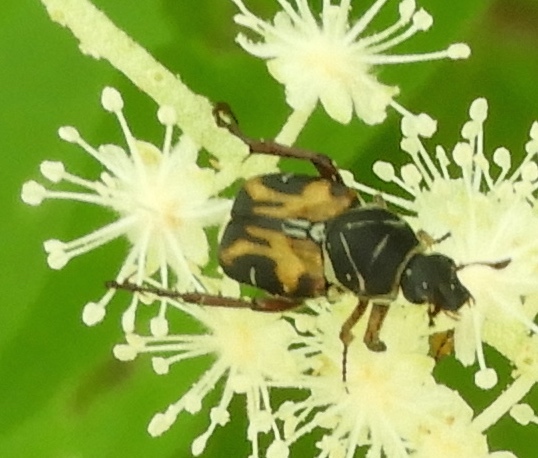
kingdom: Animalia
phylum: Arthropoda
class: Insecta
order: Coleoptera
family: Scarabaeidae
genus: Trigonopeltastes
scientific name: Trigonopeltastes sallaei
